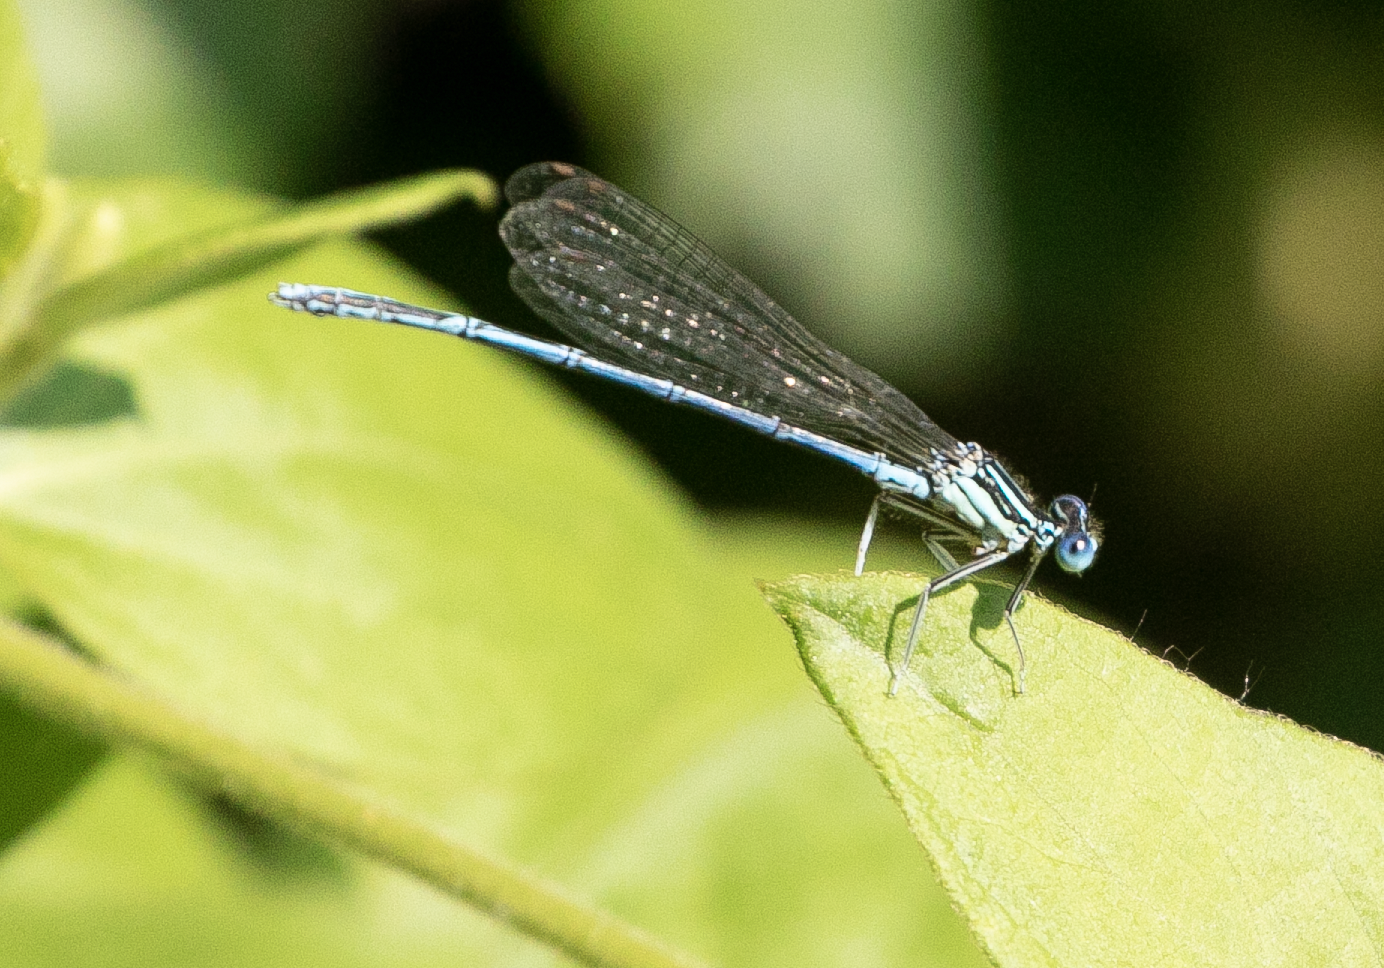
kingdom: Animalia
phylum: Arthropoda
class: Insecta
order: Odonata
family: Platycnemididae
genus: Platycnemis
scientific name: Platycnemis pennipes
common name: White-legged damselfly
